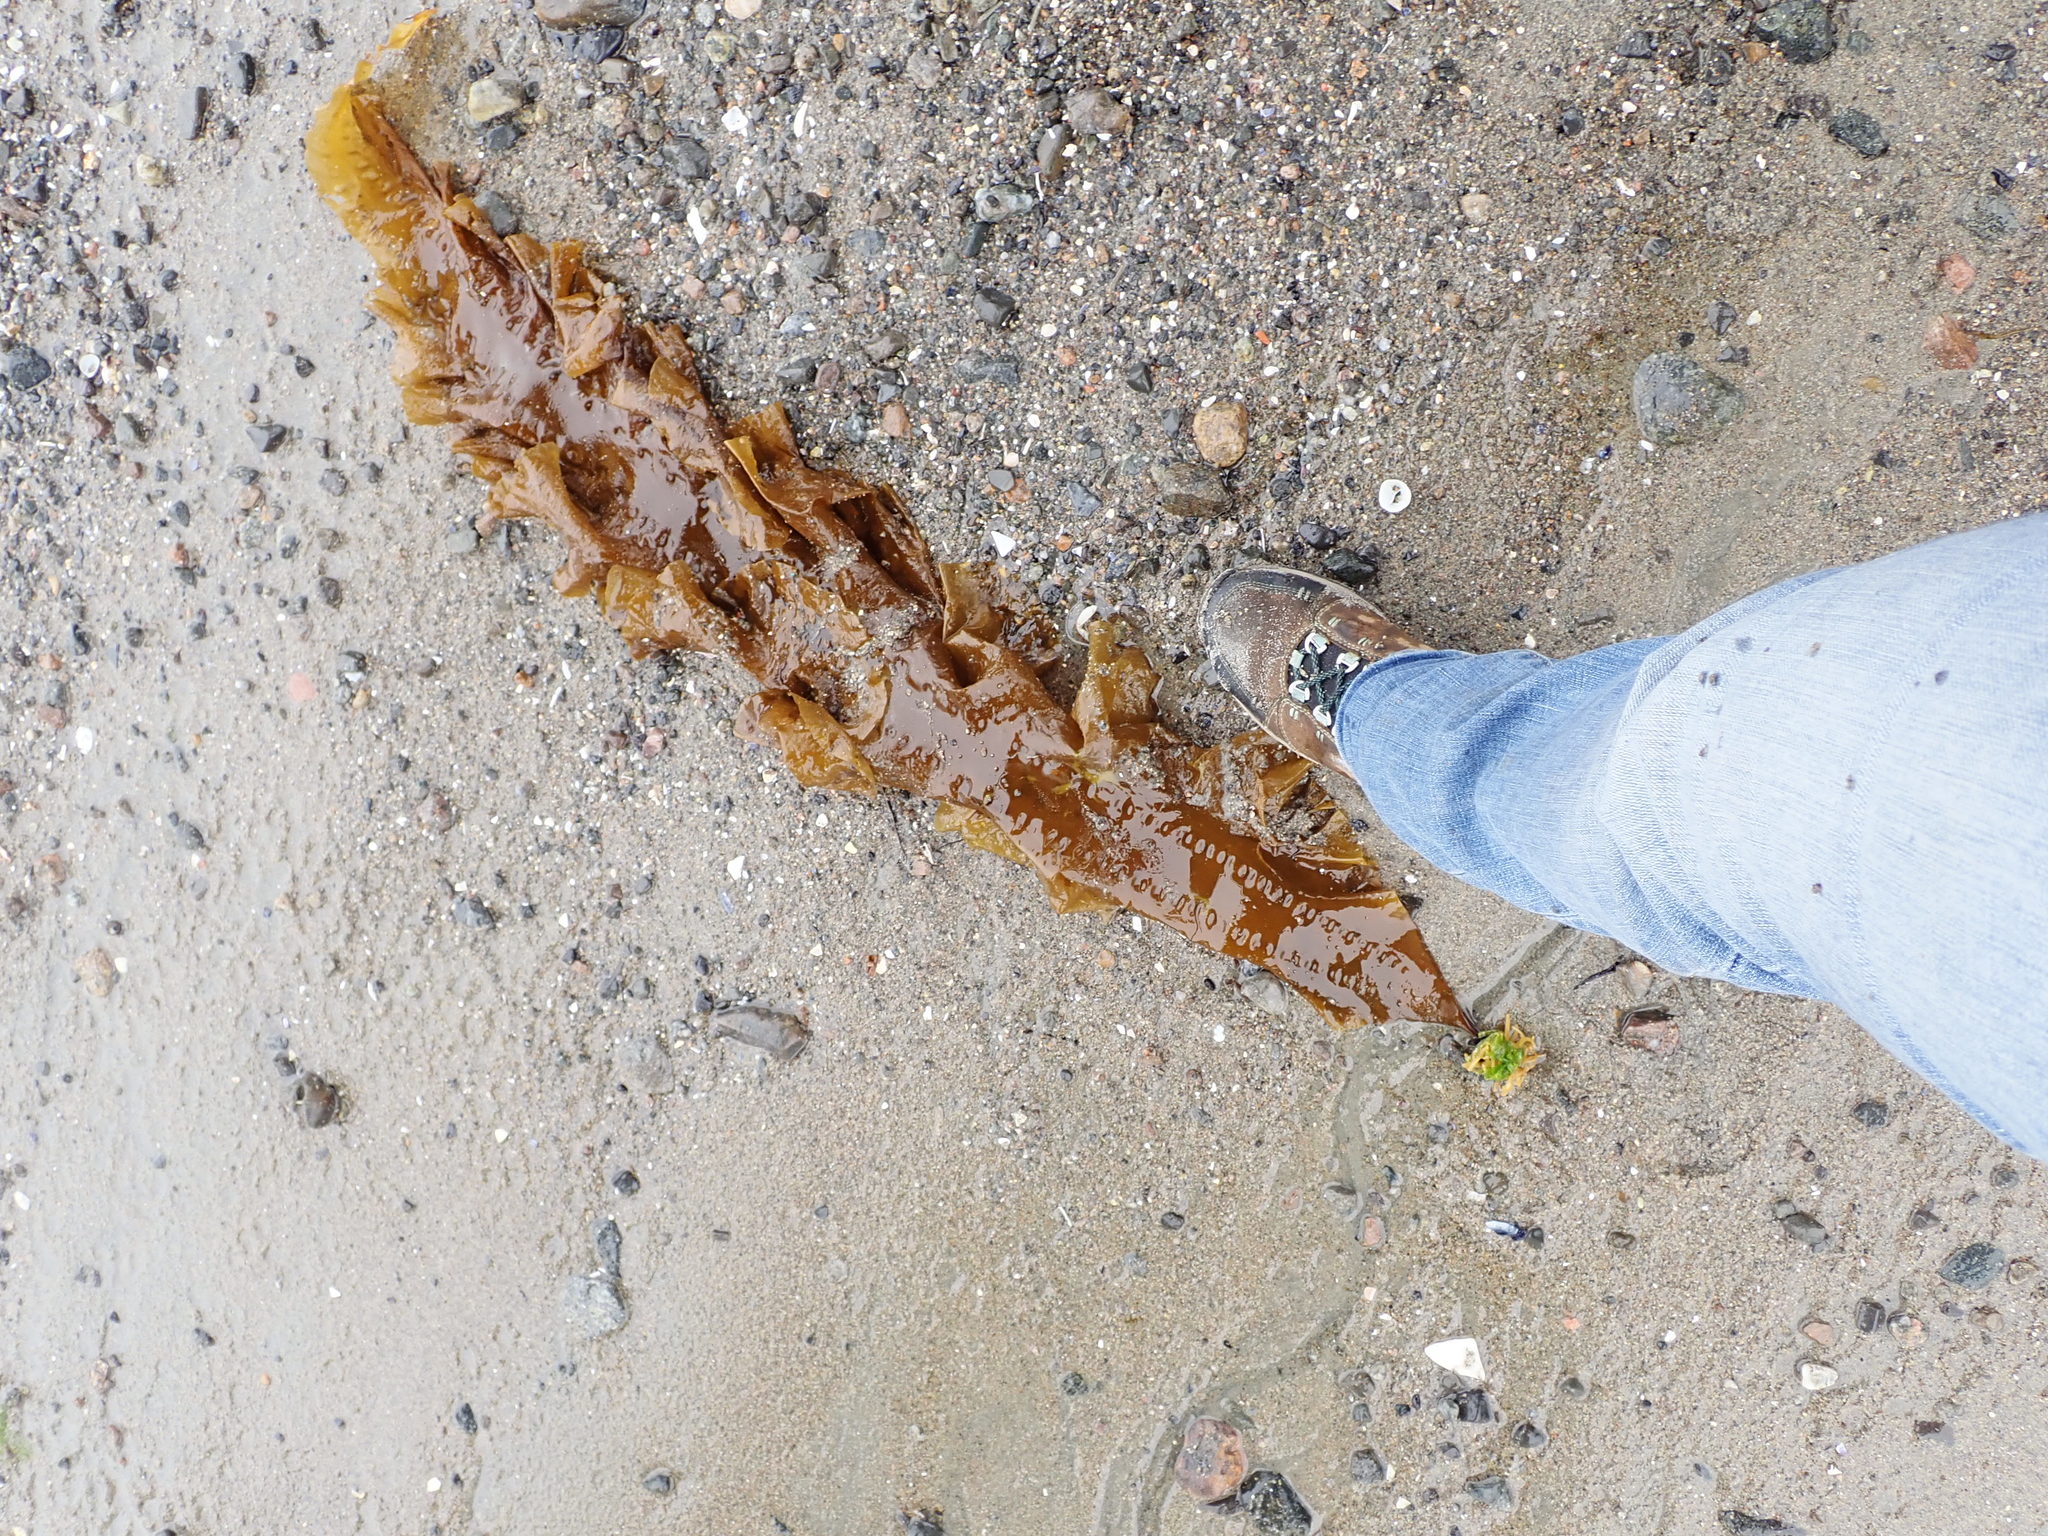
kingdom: Chromista
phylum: Ochrophyta
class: Phaeophyceae
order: Laminariales
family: Laminariaceae
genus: Saccharina
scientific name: Saccharina latissima
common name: Poor man's weather glass
